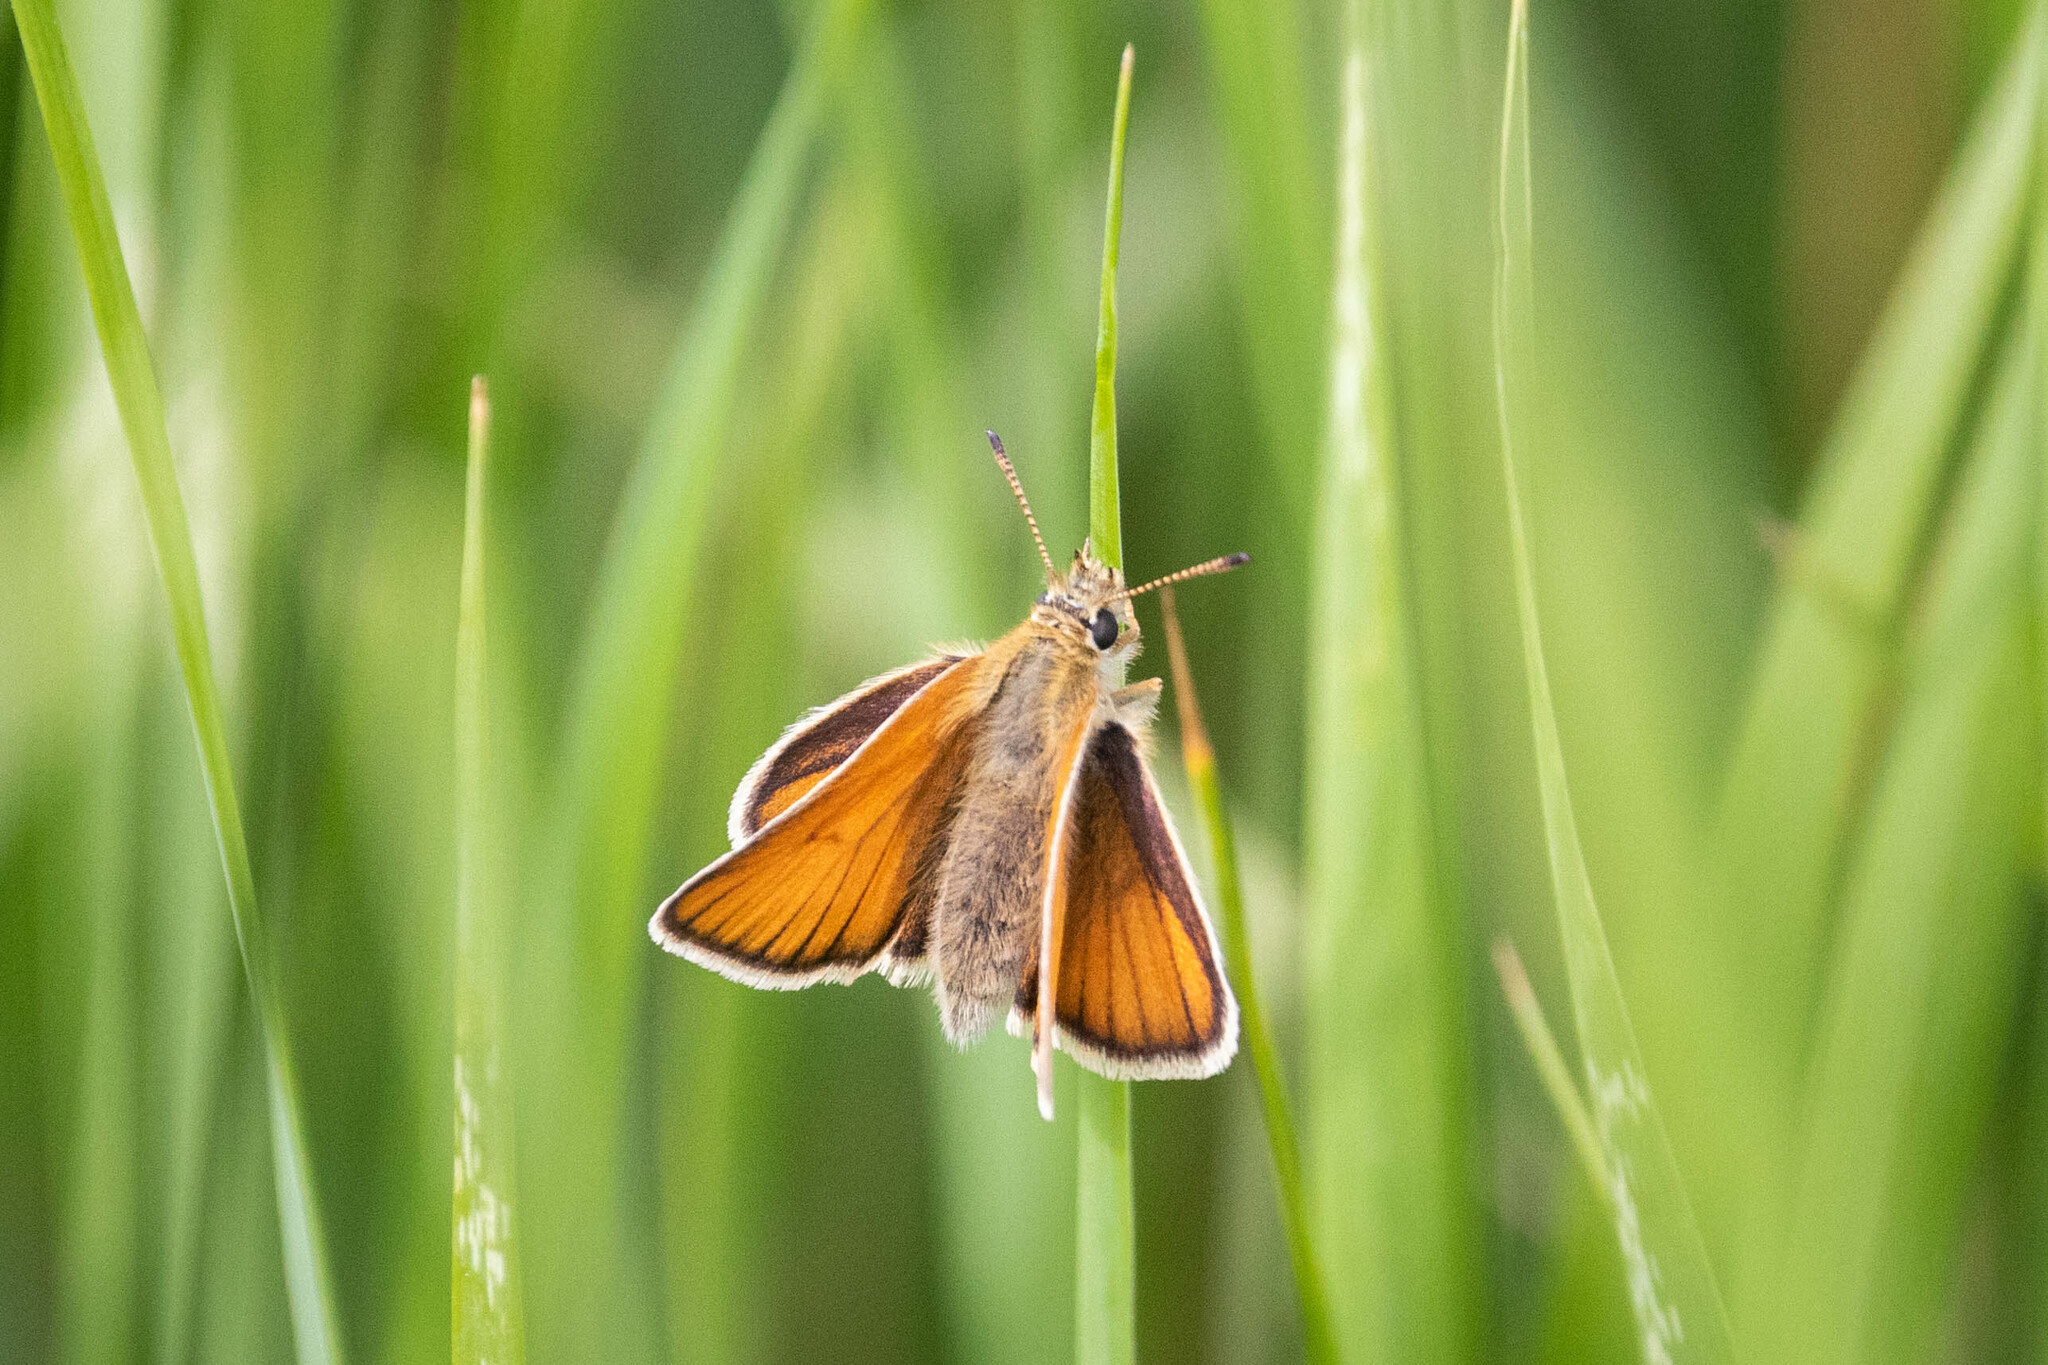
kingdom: Animalia
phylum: Arthropoda
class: Insecta
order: Lepidoptera
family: Hesperiidae
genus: Thymelicus
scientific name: Thymelicus lineola
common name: Essex skipper
